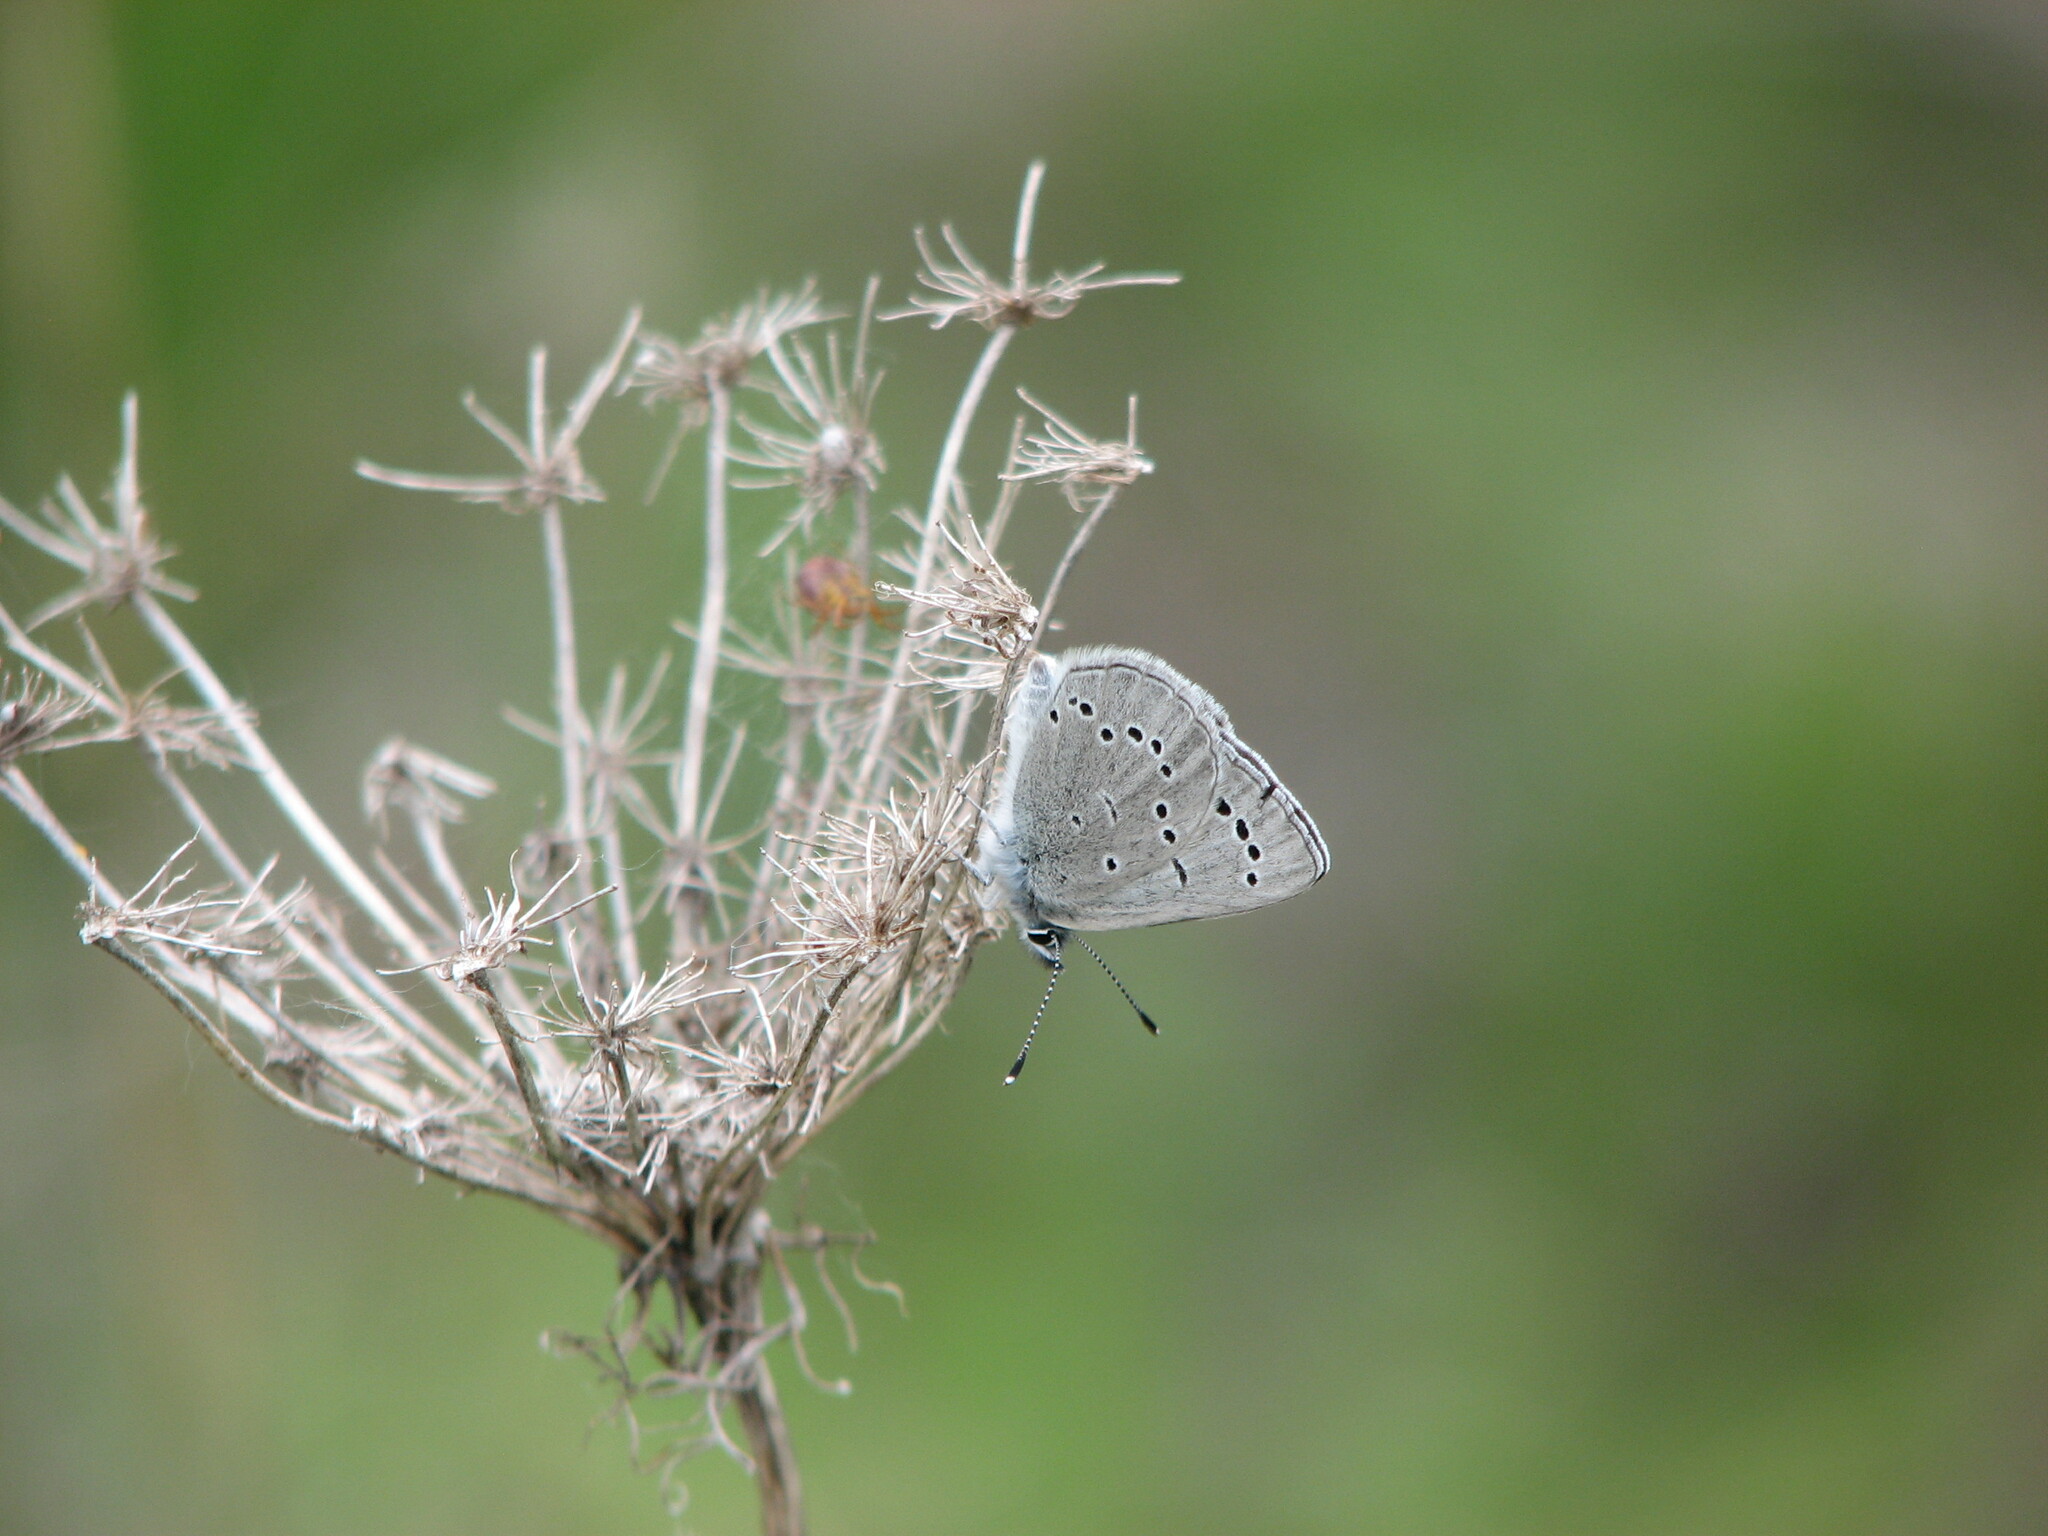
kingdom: Animalia
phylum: Arthropoda
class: Insecta
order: Lepidoptera
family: Lycaenidae
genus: Glaucopsyche
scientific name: Glaucopsyche lygdamus
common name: Silvery blue
